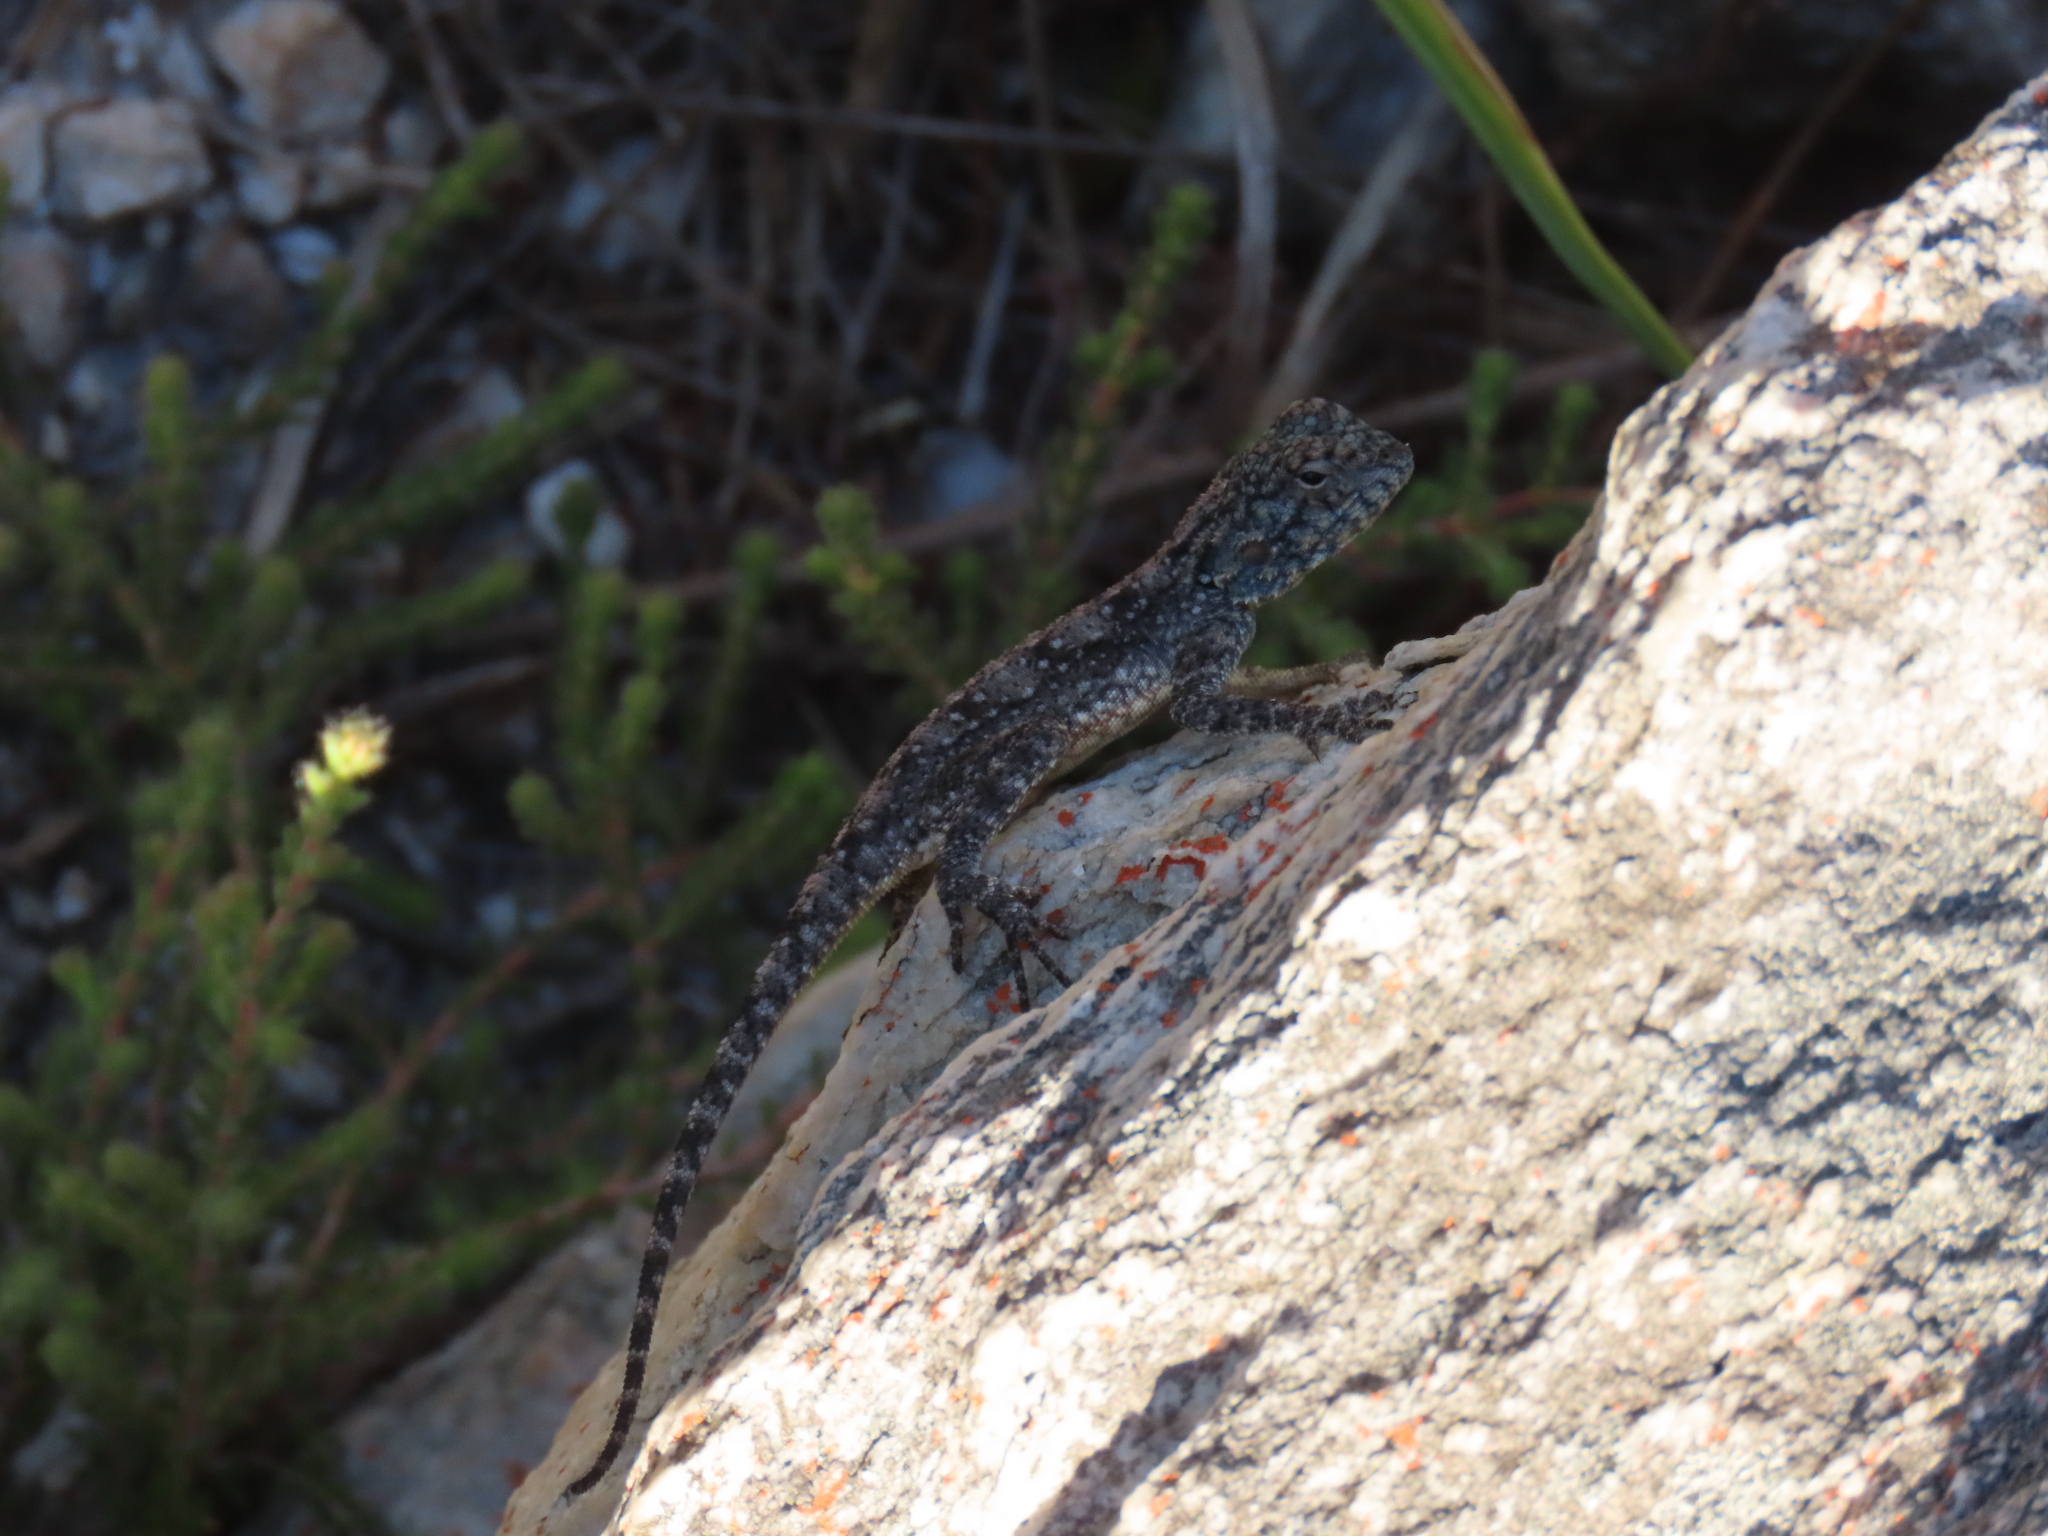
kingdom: Animalia
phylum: Chordata
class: Squamata
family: Agamidae
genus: Agama
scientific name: Agama atra
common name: Southern african rock agama
